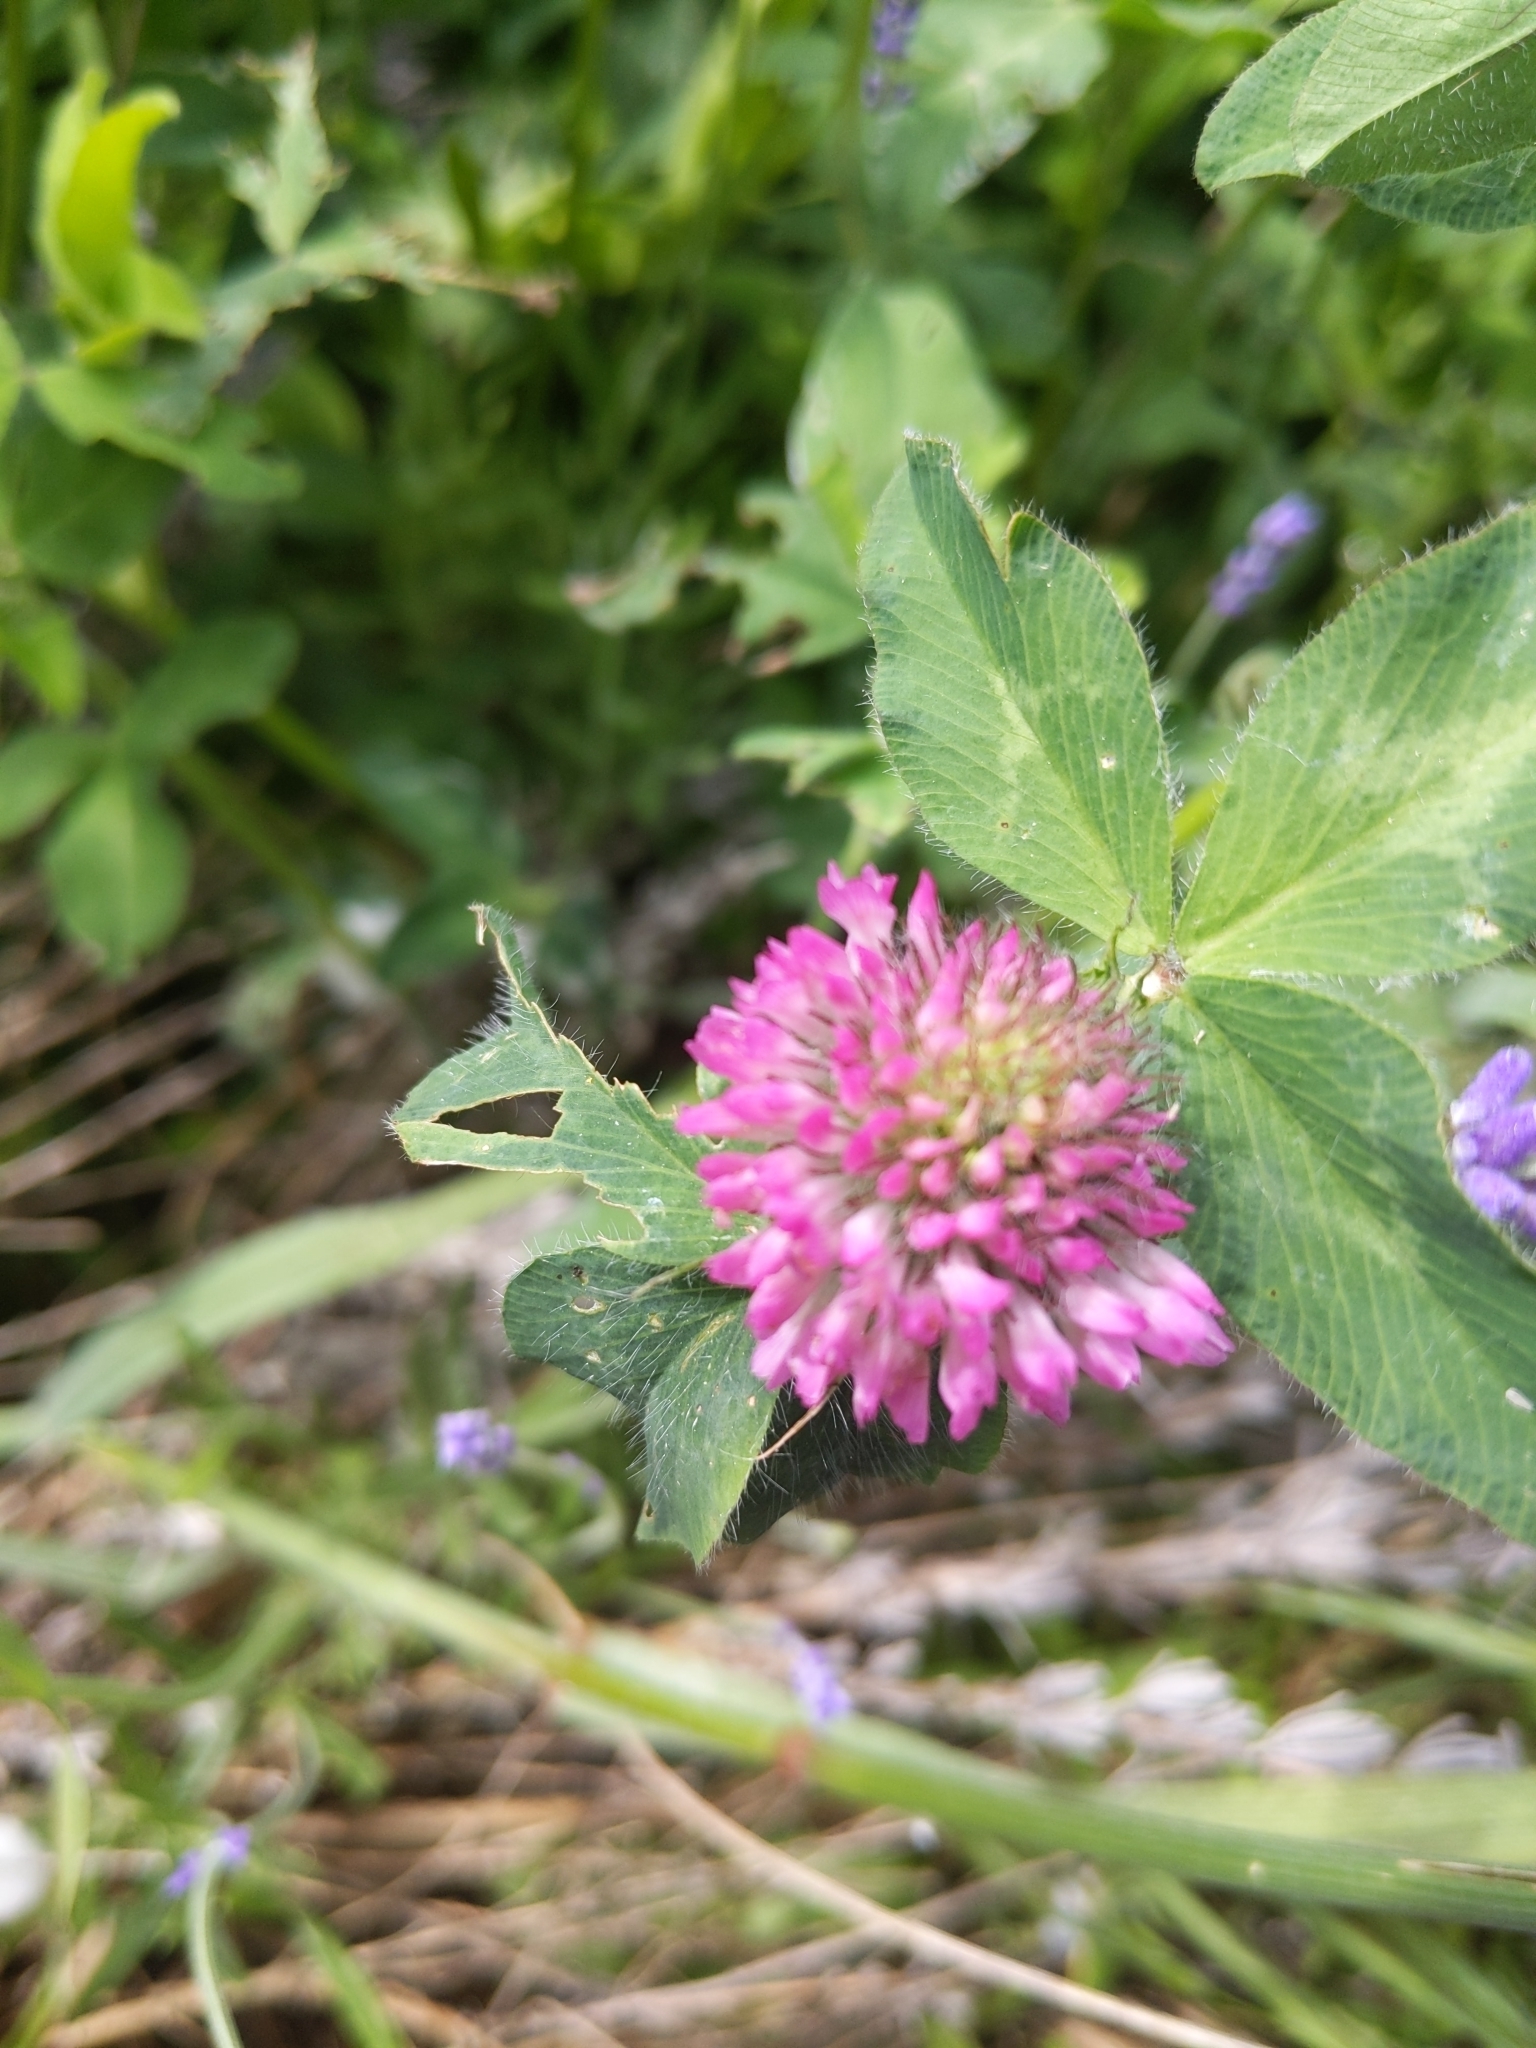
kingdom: Plantae
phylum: Tracheophyta
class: Magnoliopsida
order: Fabales
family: Fabaceae
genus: Trifolium
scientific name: Trifolium pratense
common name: Red clover
